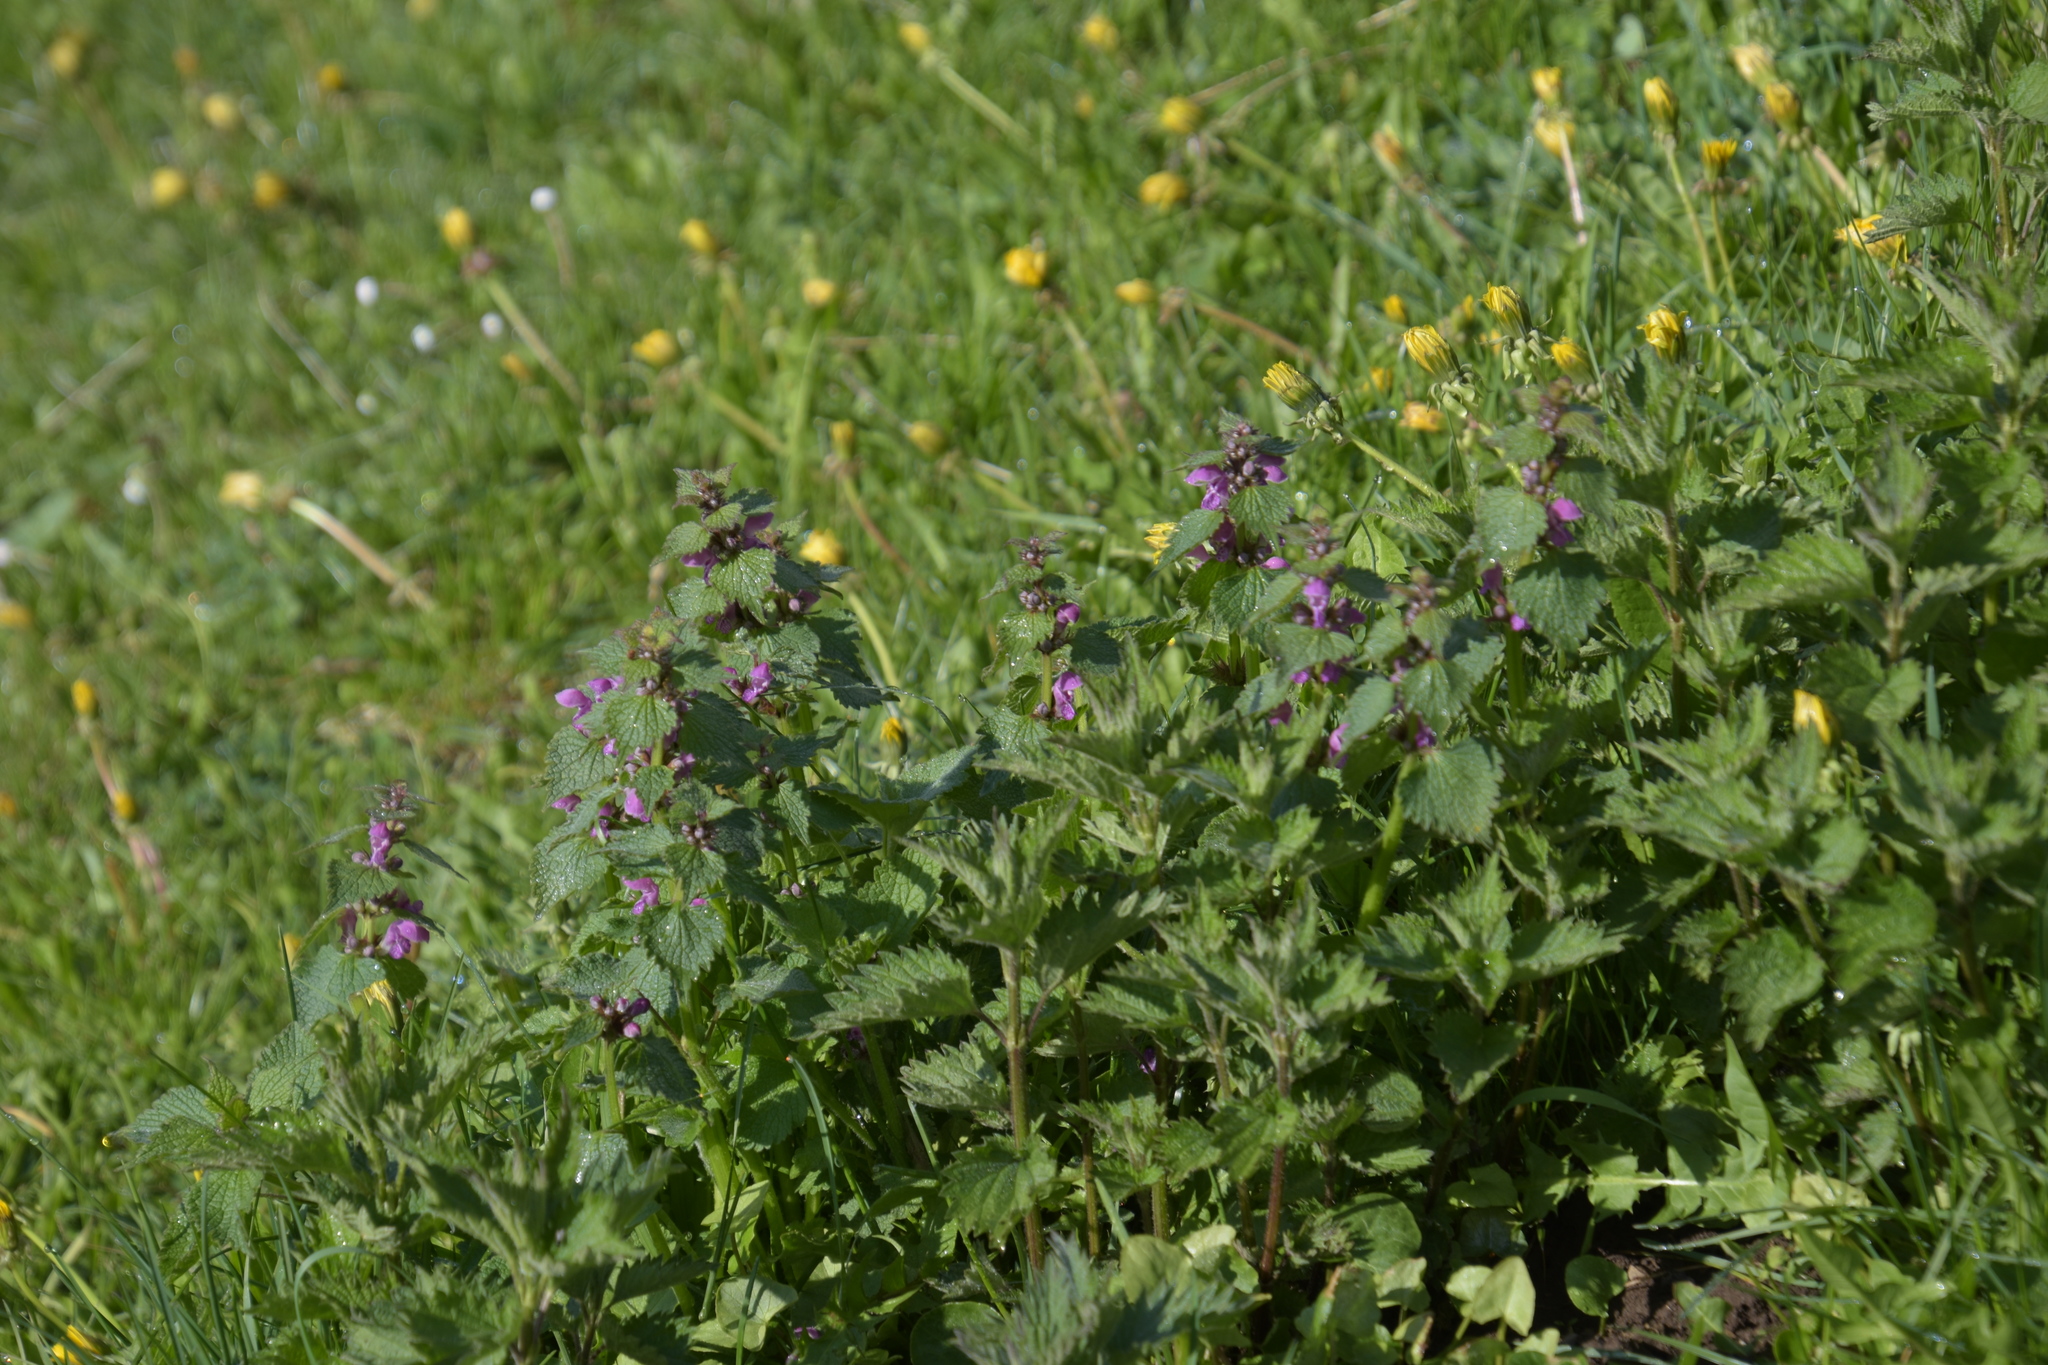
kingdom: Plantae
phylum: Tracheophyta
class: Magnoliopsida
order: Lamiales
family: Lamiaceae
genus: Lamium
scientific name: Lamium maculatum
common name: Spotted dead-nettle
